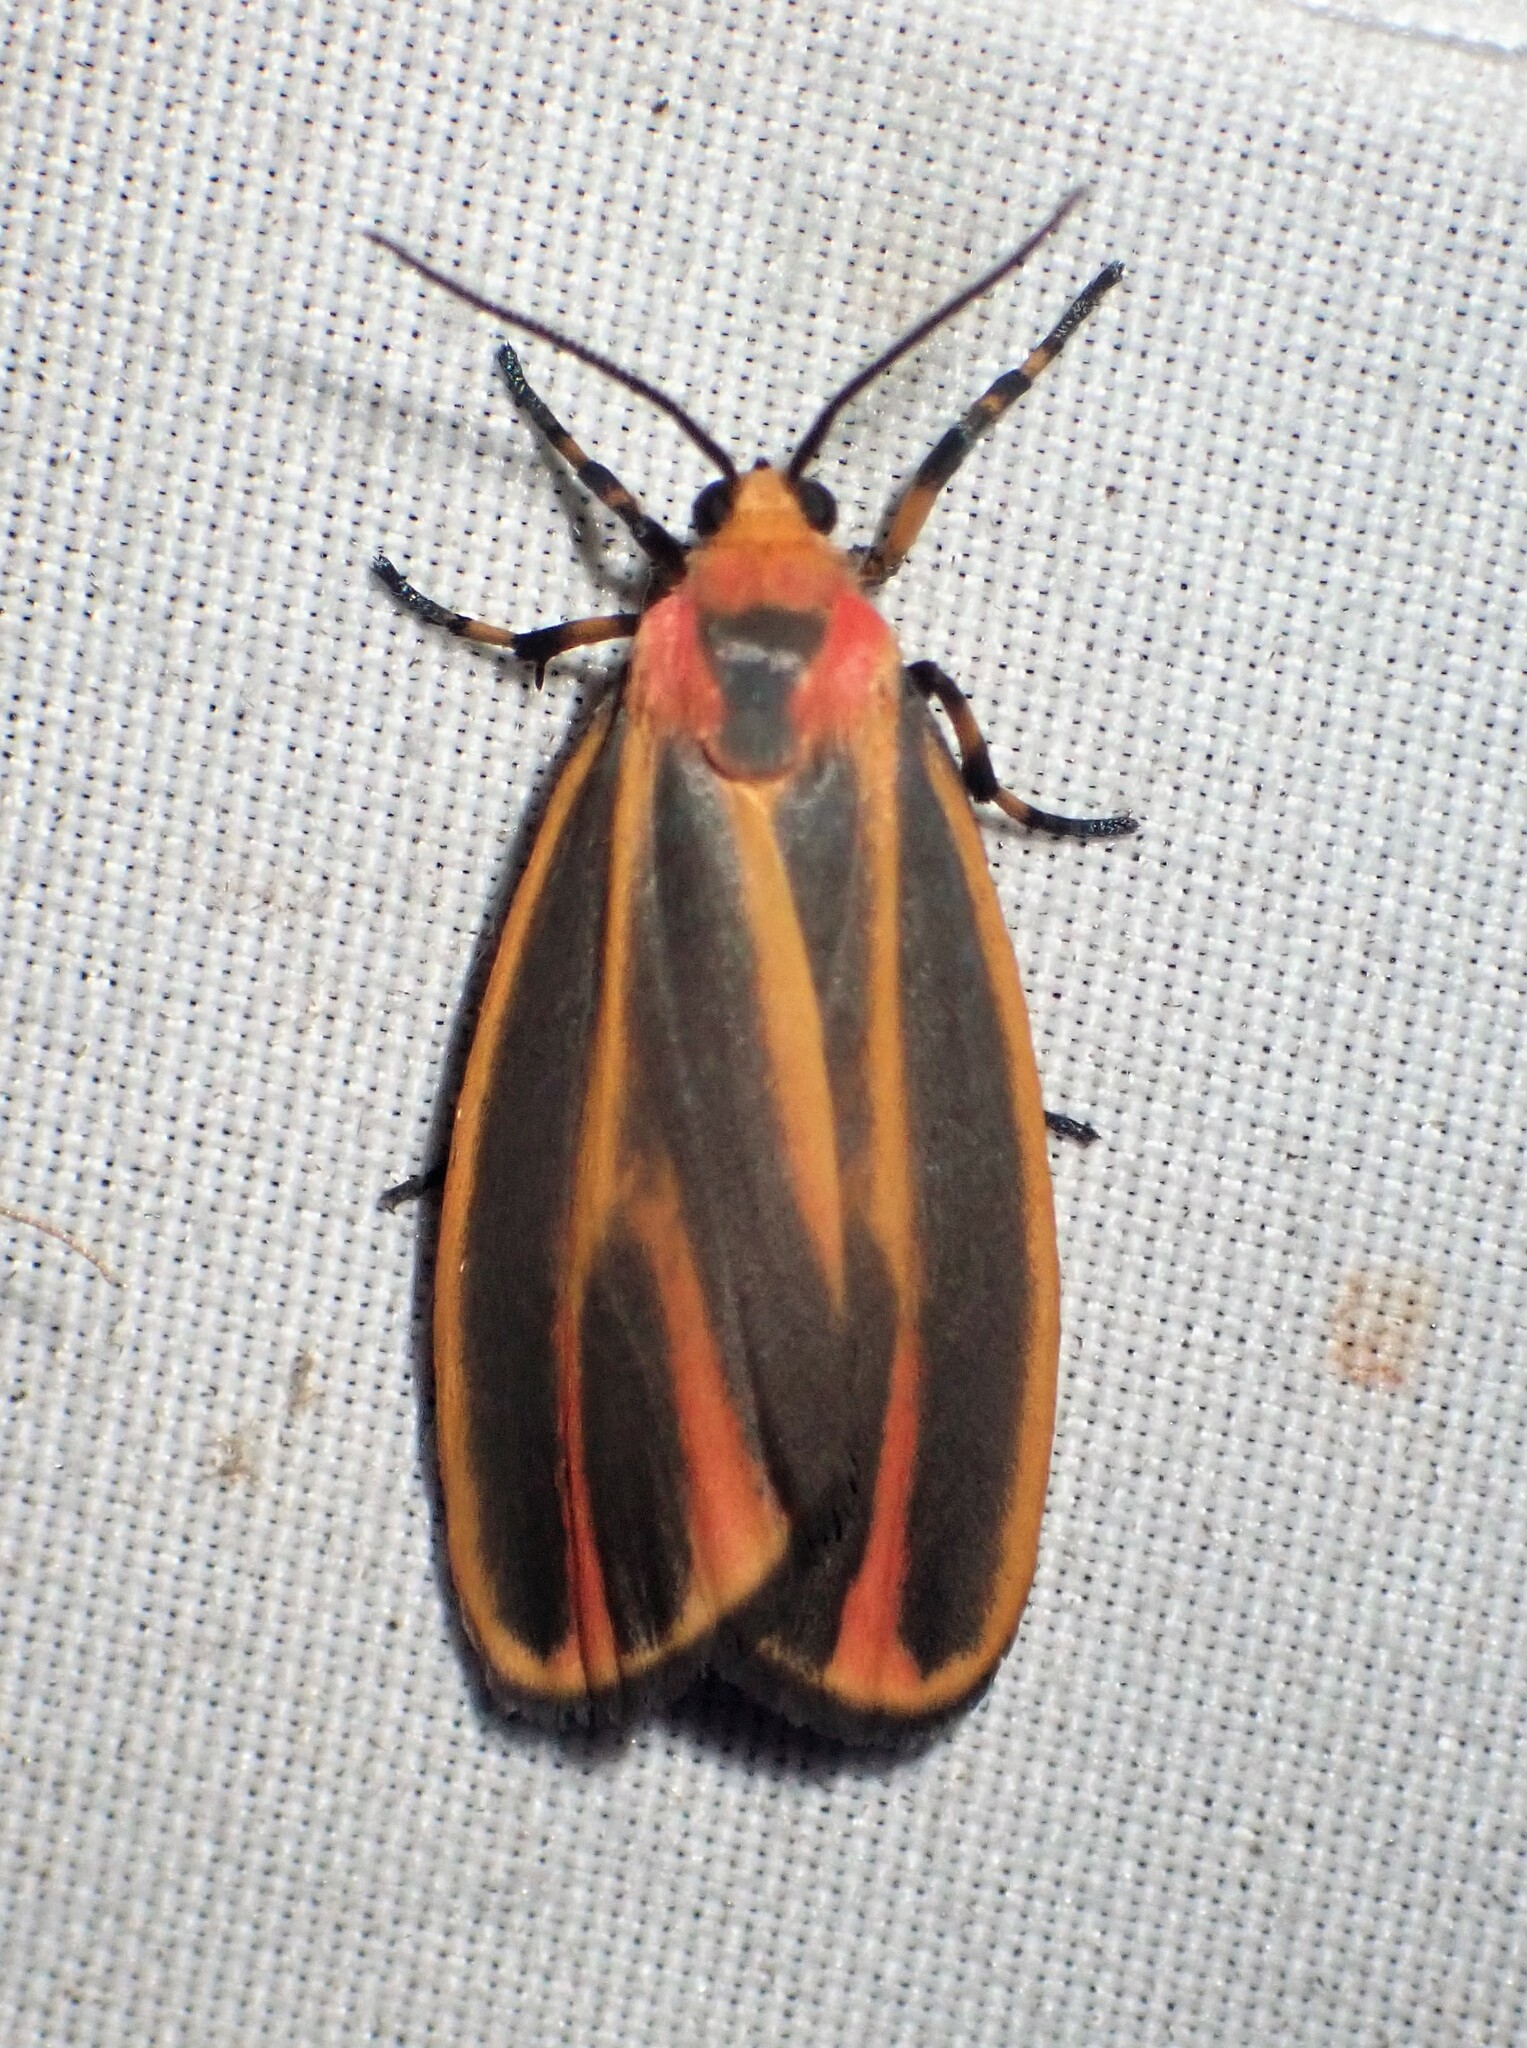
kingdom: Animalia
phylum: Arthropoda
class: Insecta
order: Lepidoptera
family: Erebidae
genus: Hypoprepia
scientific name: Hypoprepia fucosa
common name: Painted lichen moth
